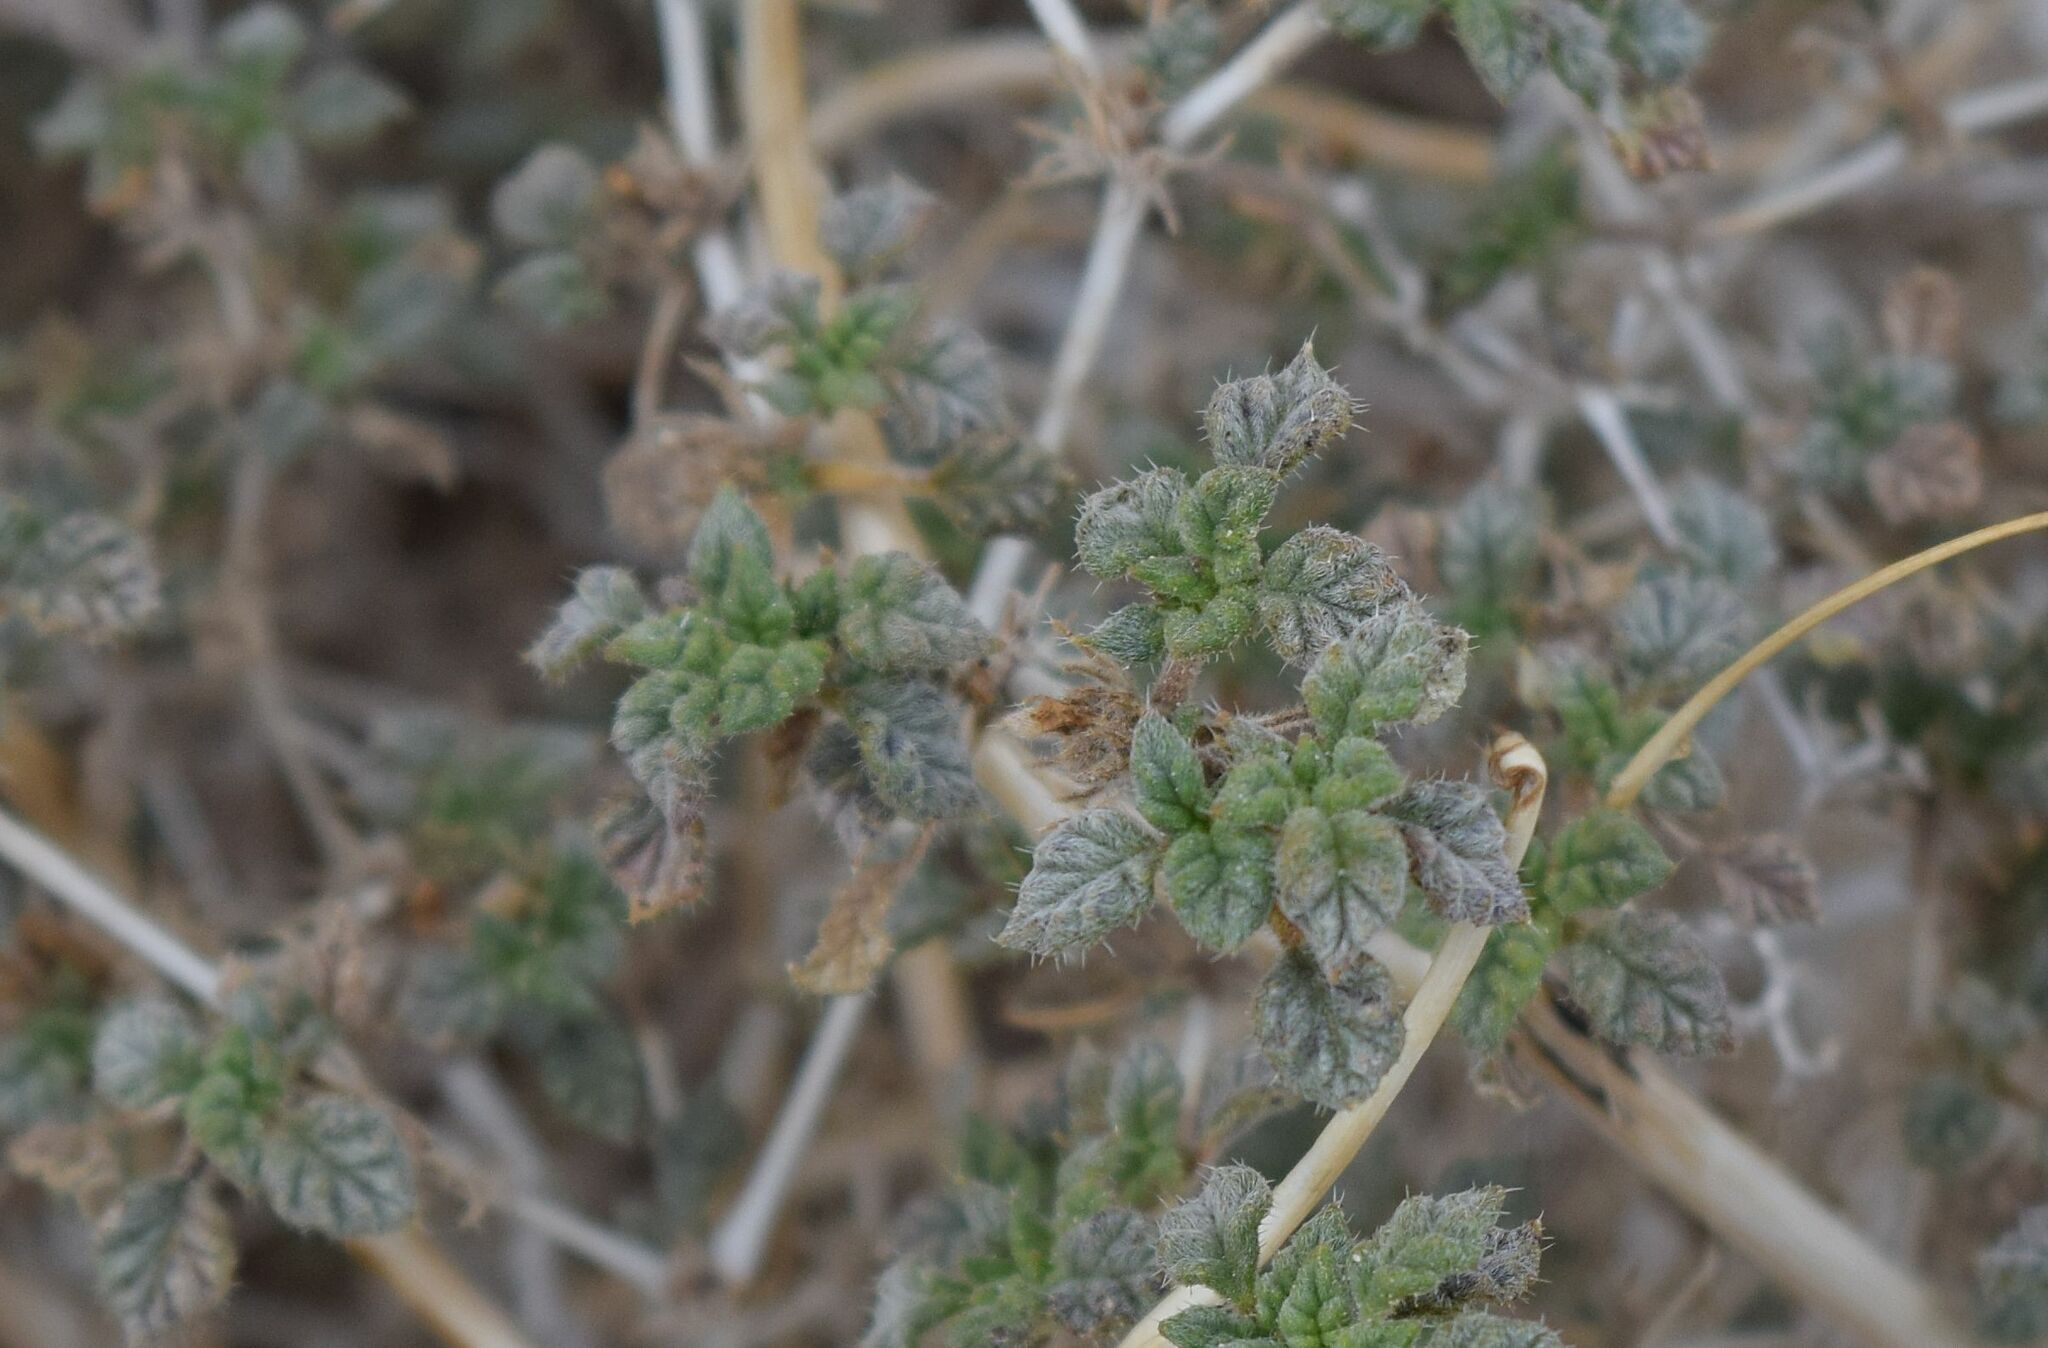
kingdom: Plantae
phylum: Tracheophyta
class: Magnoliopsida
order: Boraginales
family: Ehretiaceae
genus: Tiquilia
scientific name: Tiquilia palmeri
